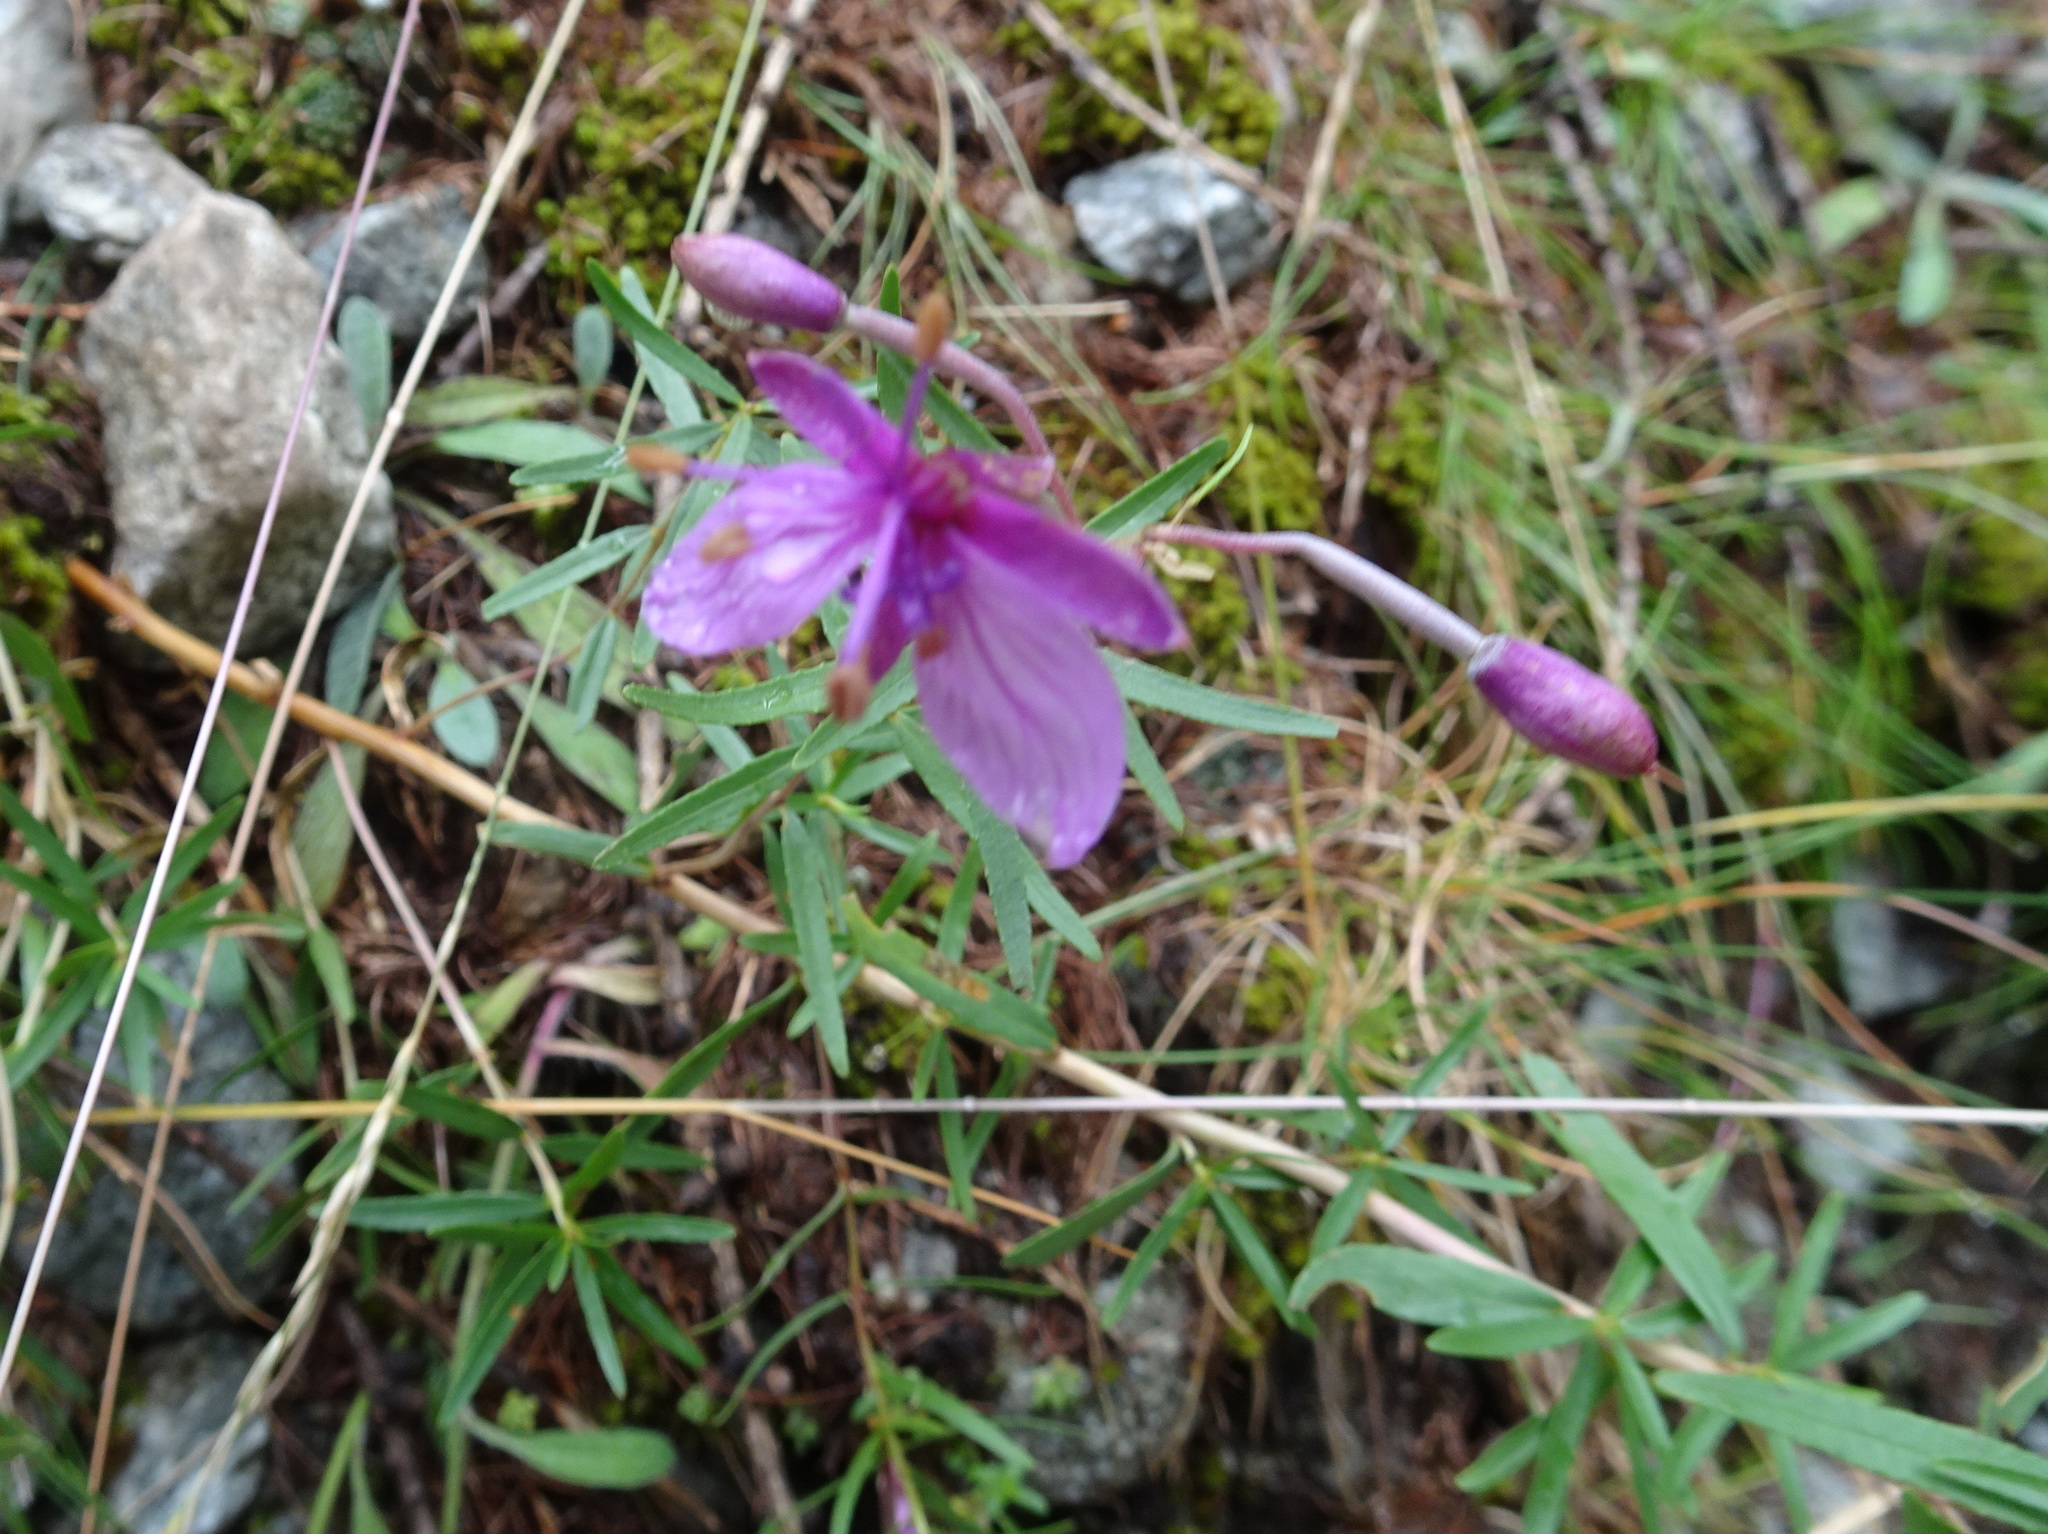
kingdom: Plantae
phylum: Tracheophyta
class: Magnoliopsida
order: Myrtales
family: Onagraceae
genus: Chamaenerion
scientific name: Chamaenerion fleischeri
